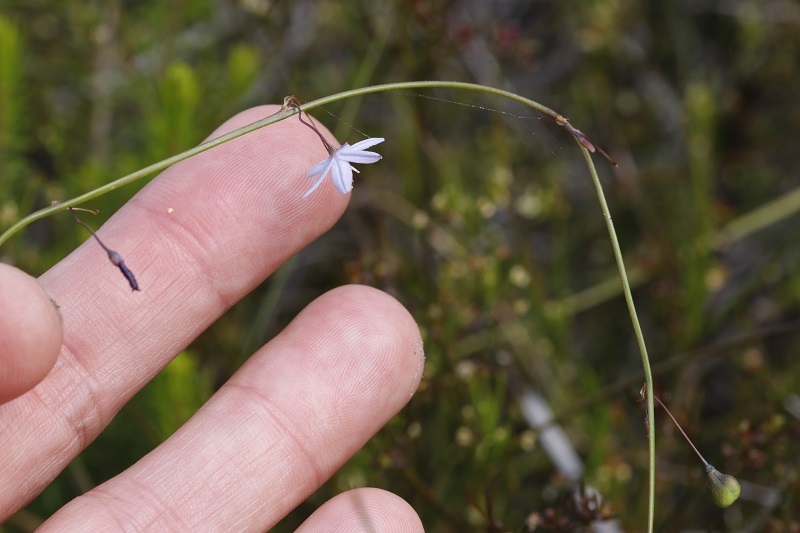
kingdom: Plantae
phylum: Tracheophyta
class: Liliopsida
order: Asparagales
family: Asphodelaceae
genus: Caesia
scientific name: Caesia contorta
